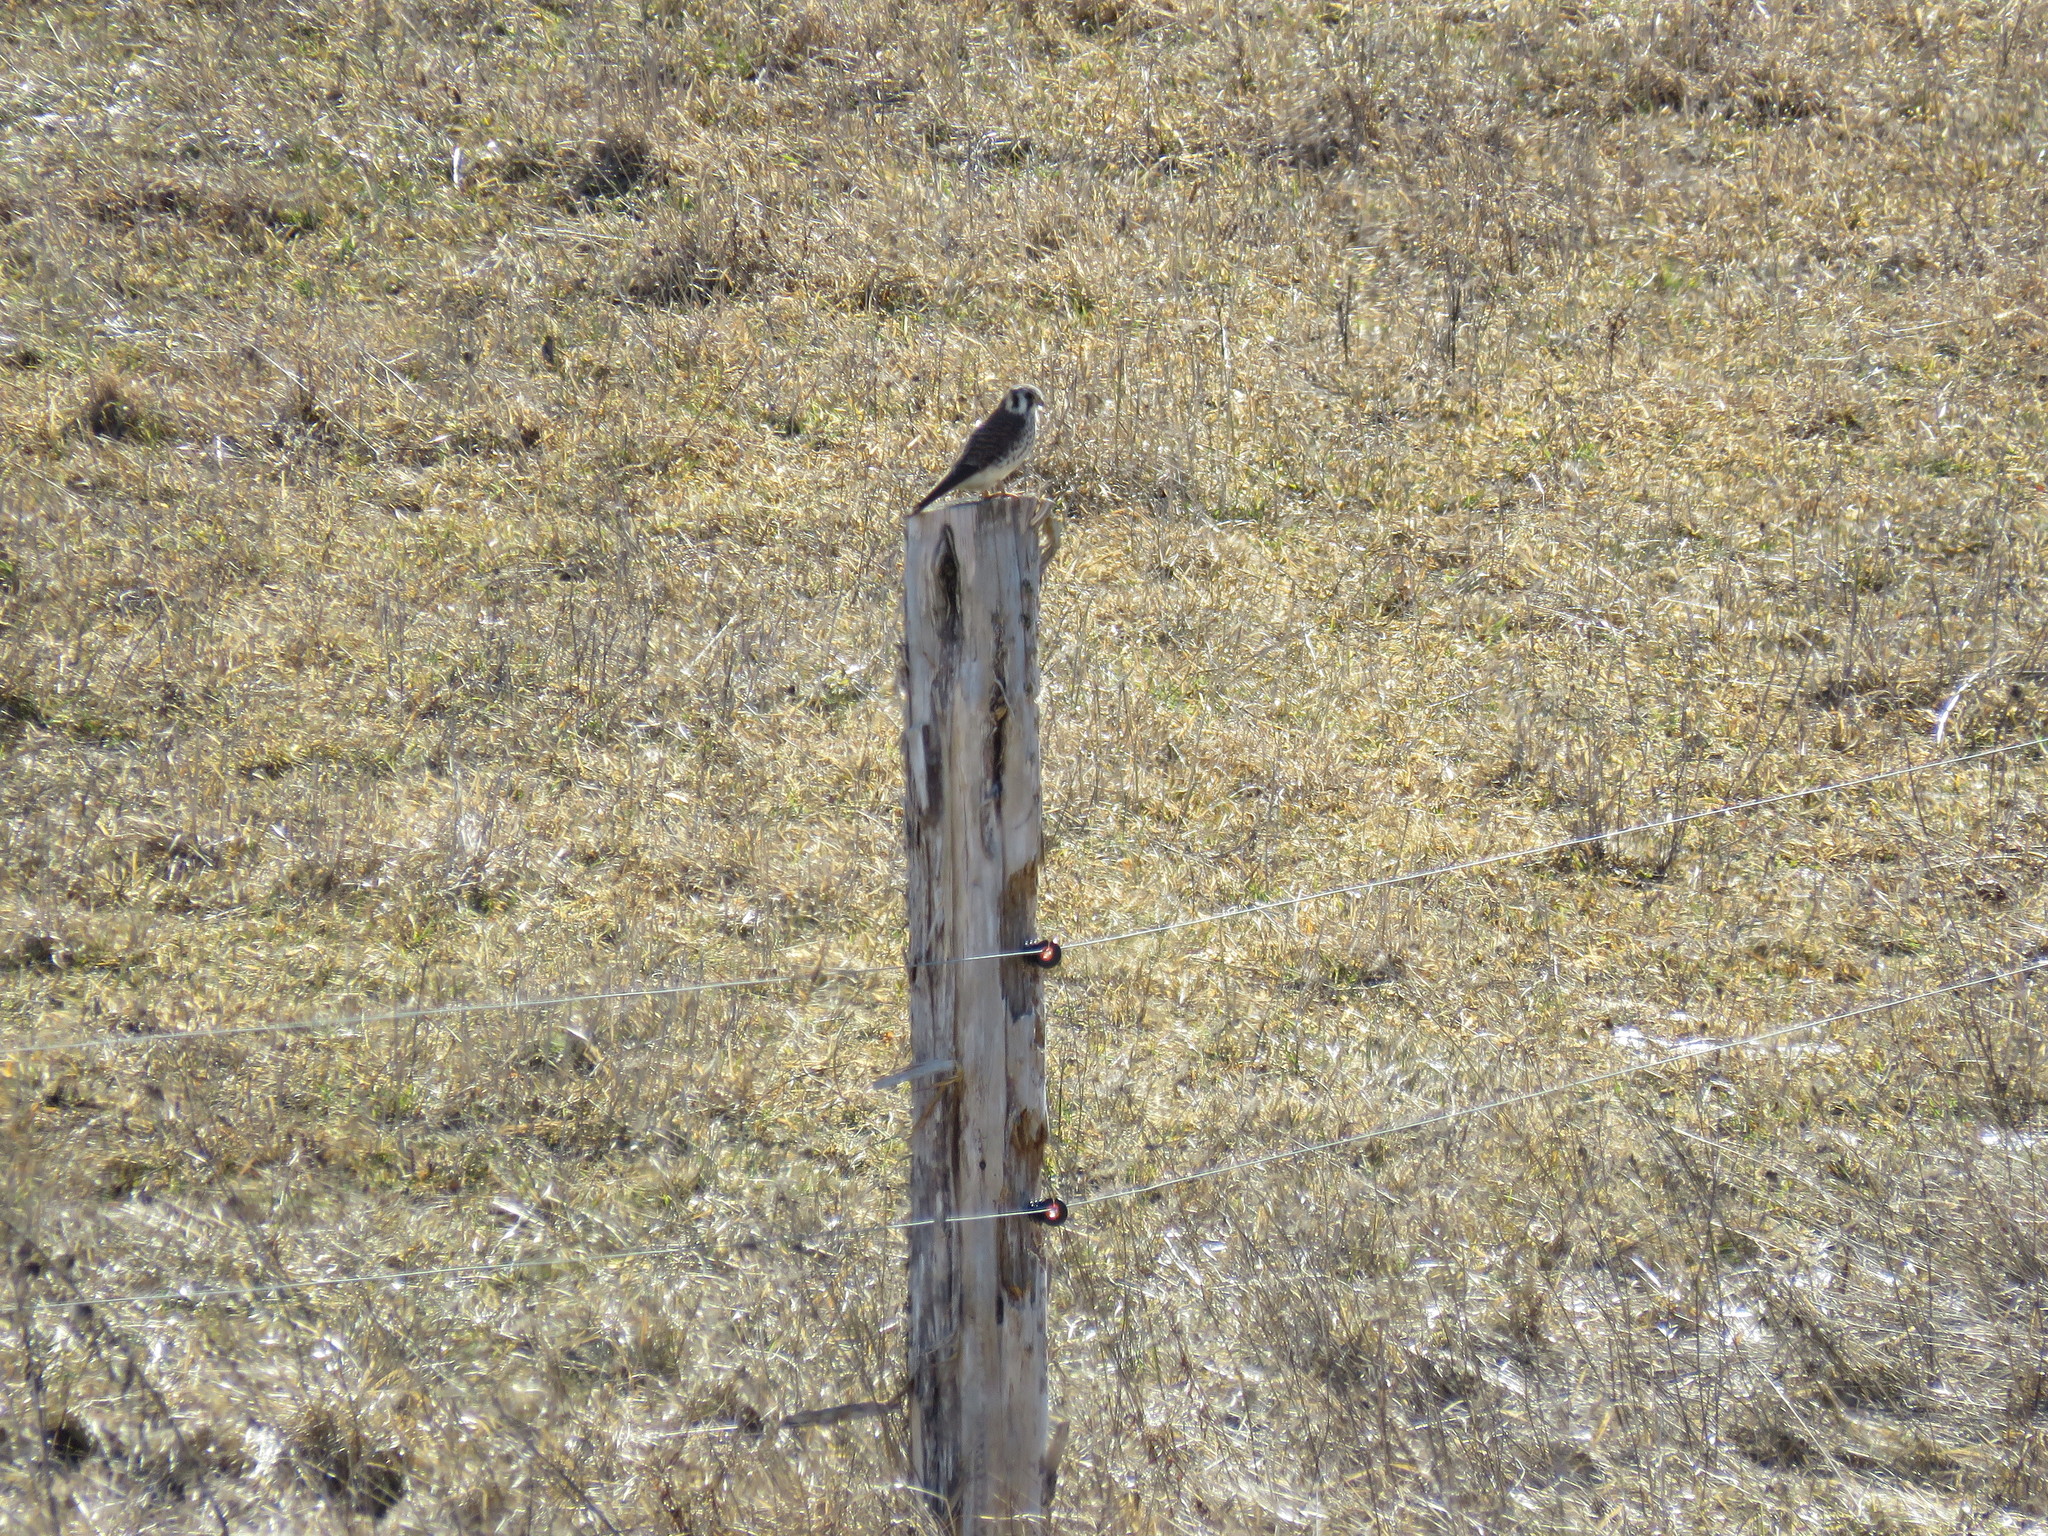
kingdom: Animalia
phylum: Chordata
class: Aves
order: Falconiformes
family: Falconidae
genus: Falco
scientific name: Falco sparverius
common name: American kestrel
